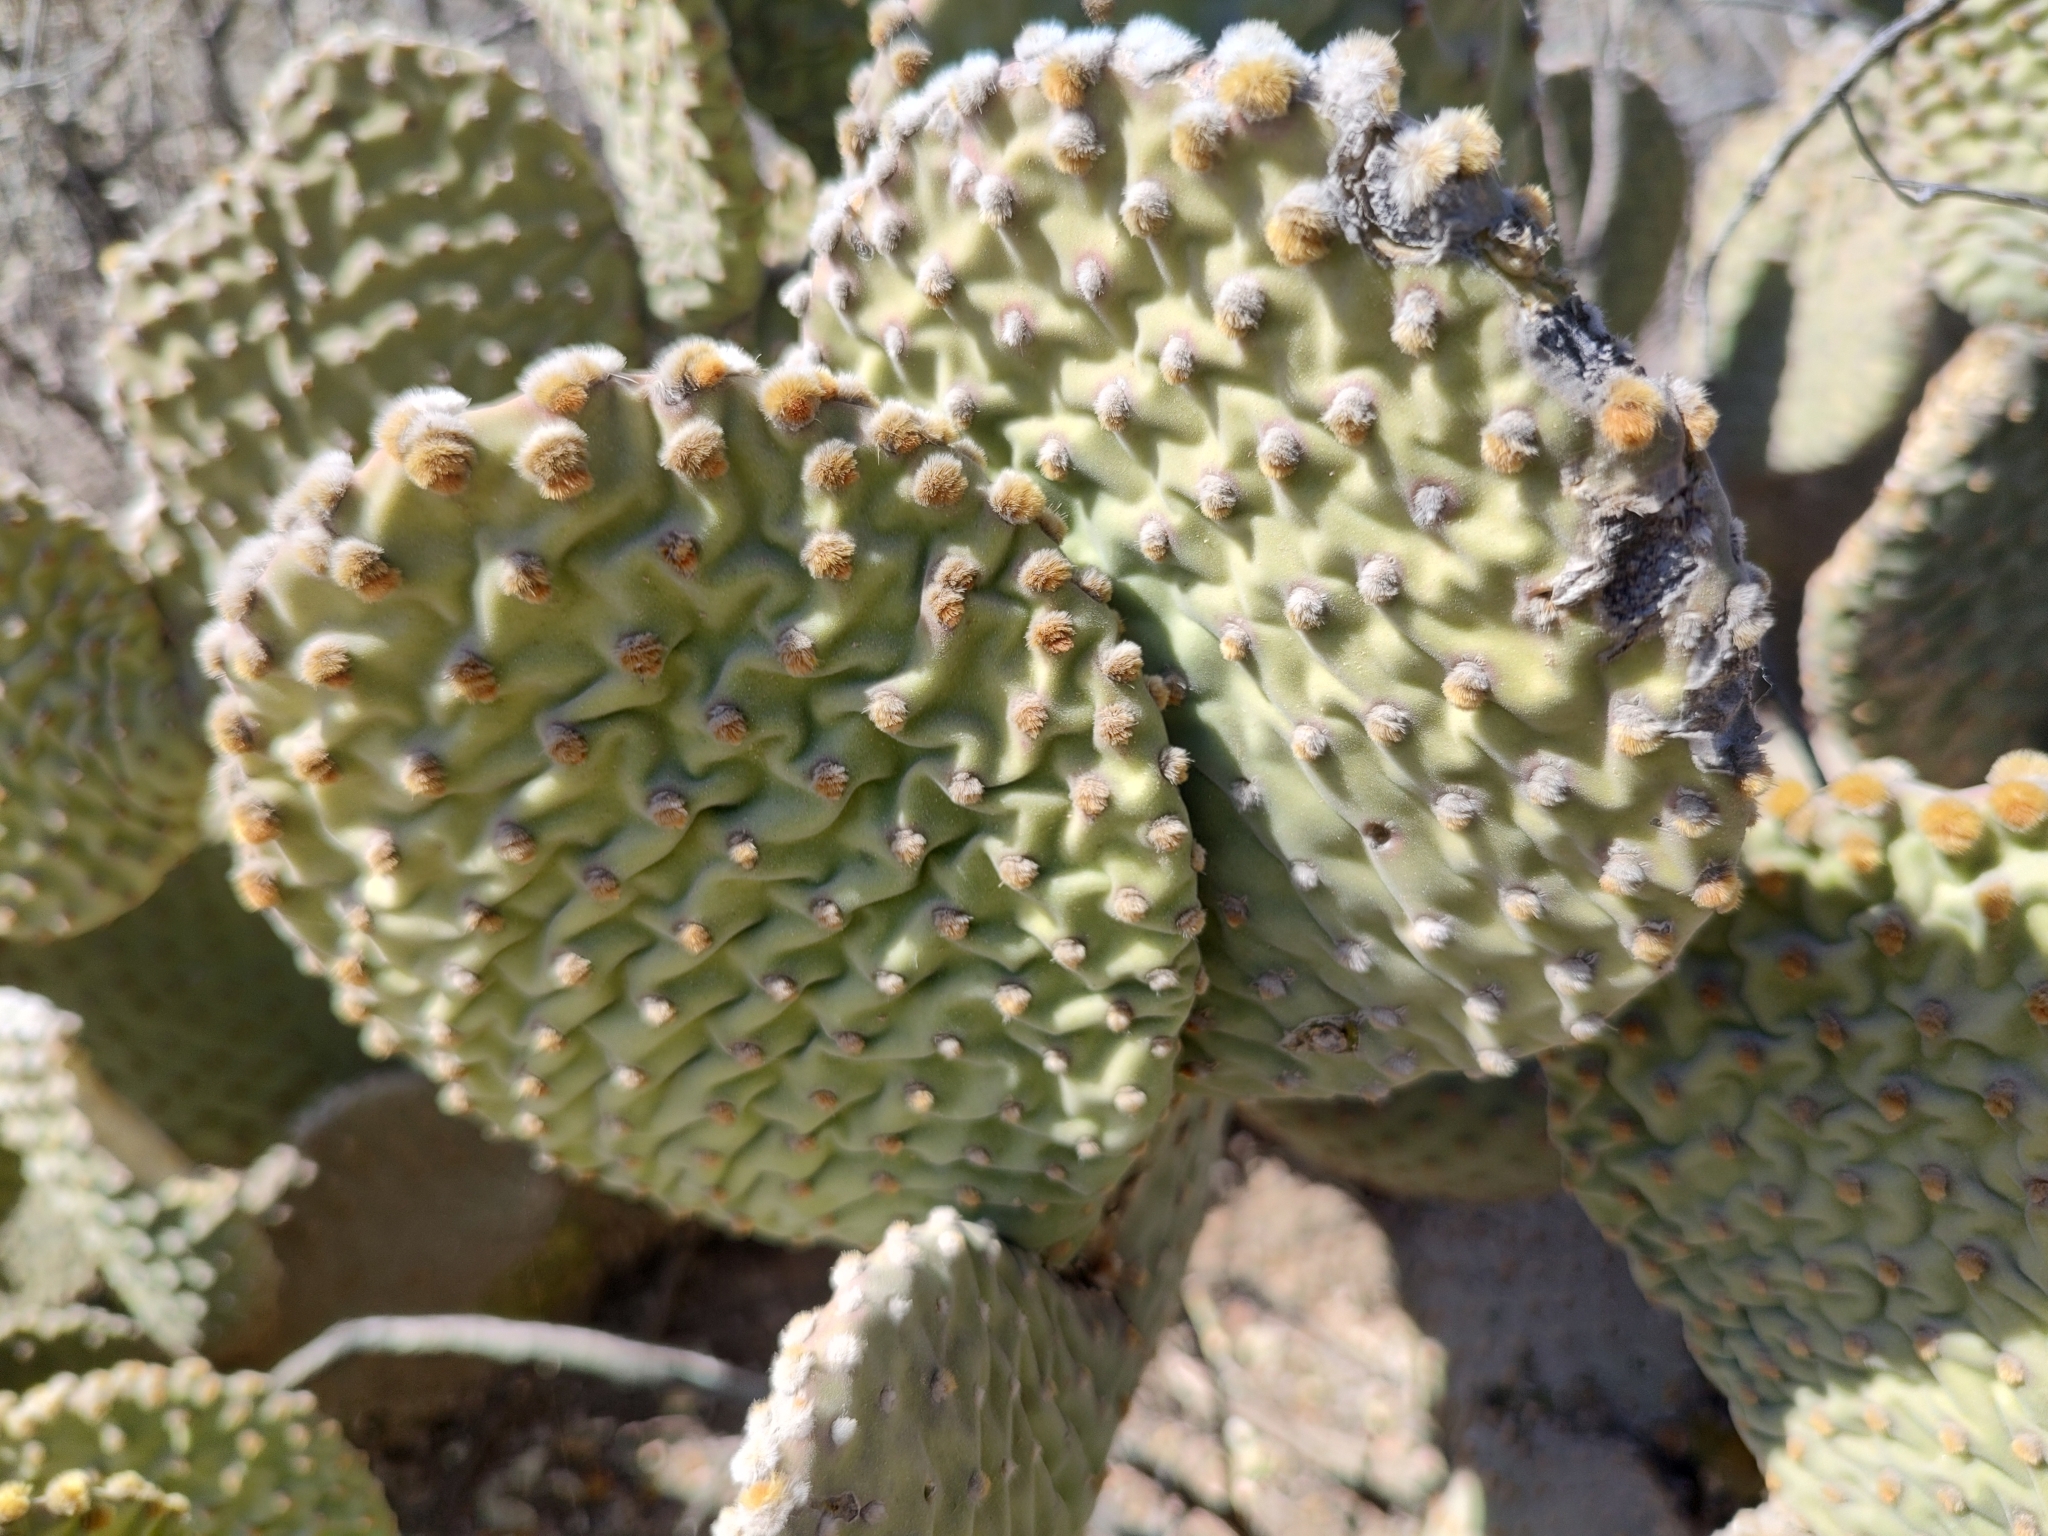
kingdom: Plantae
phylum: Tracheophyta
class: Magnoliopsida
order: Caryophyllales
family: Cactaceae
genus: Opuntia
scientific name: Opuntia microdasys
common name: Angel's-wings
